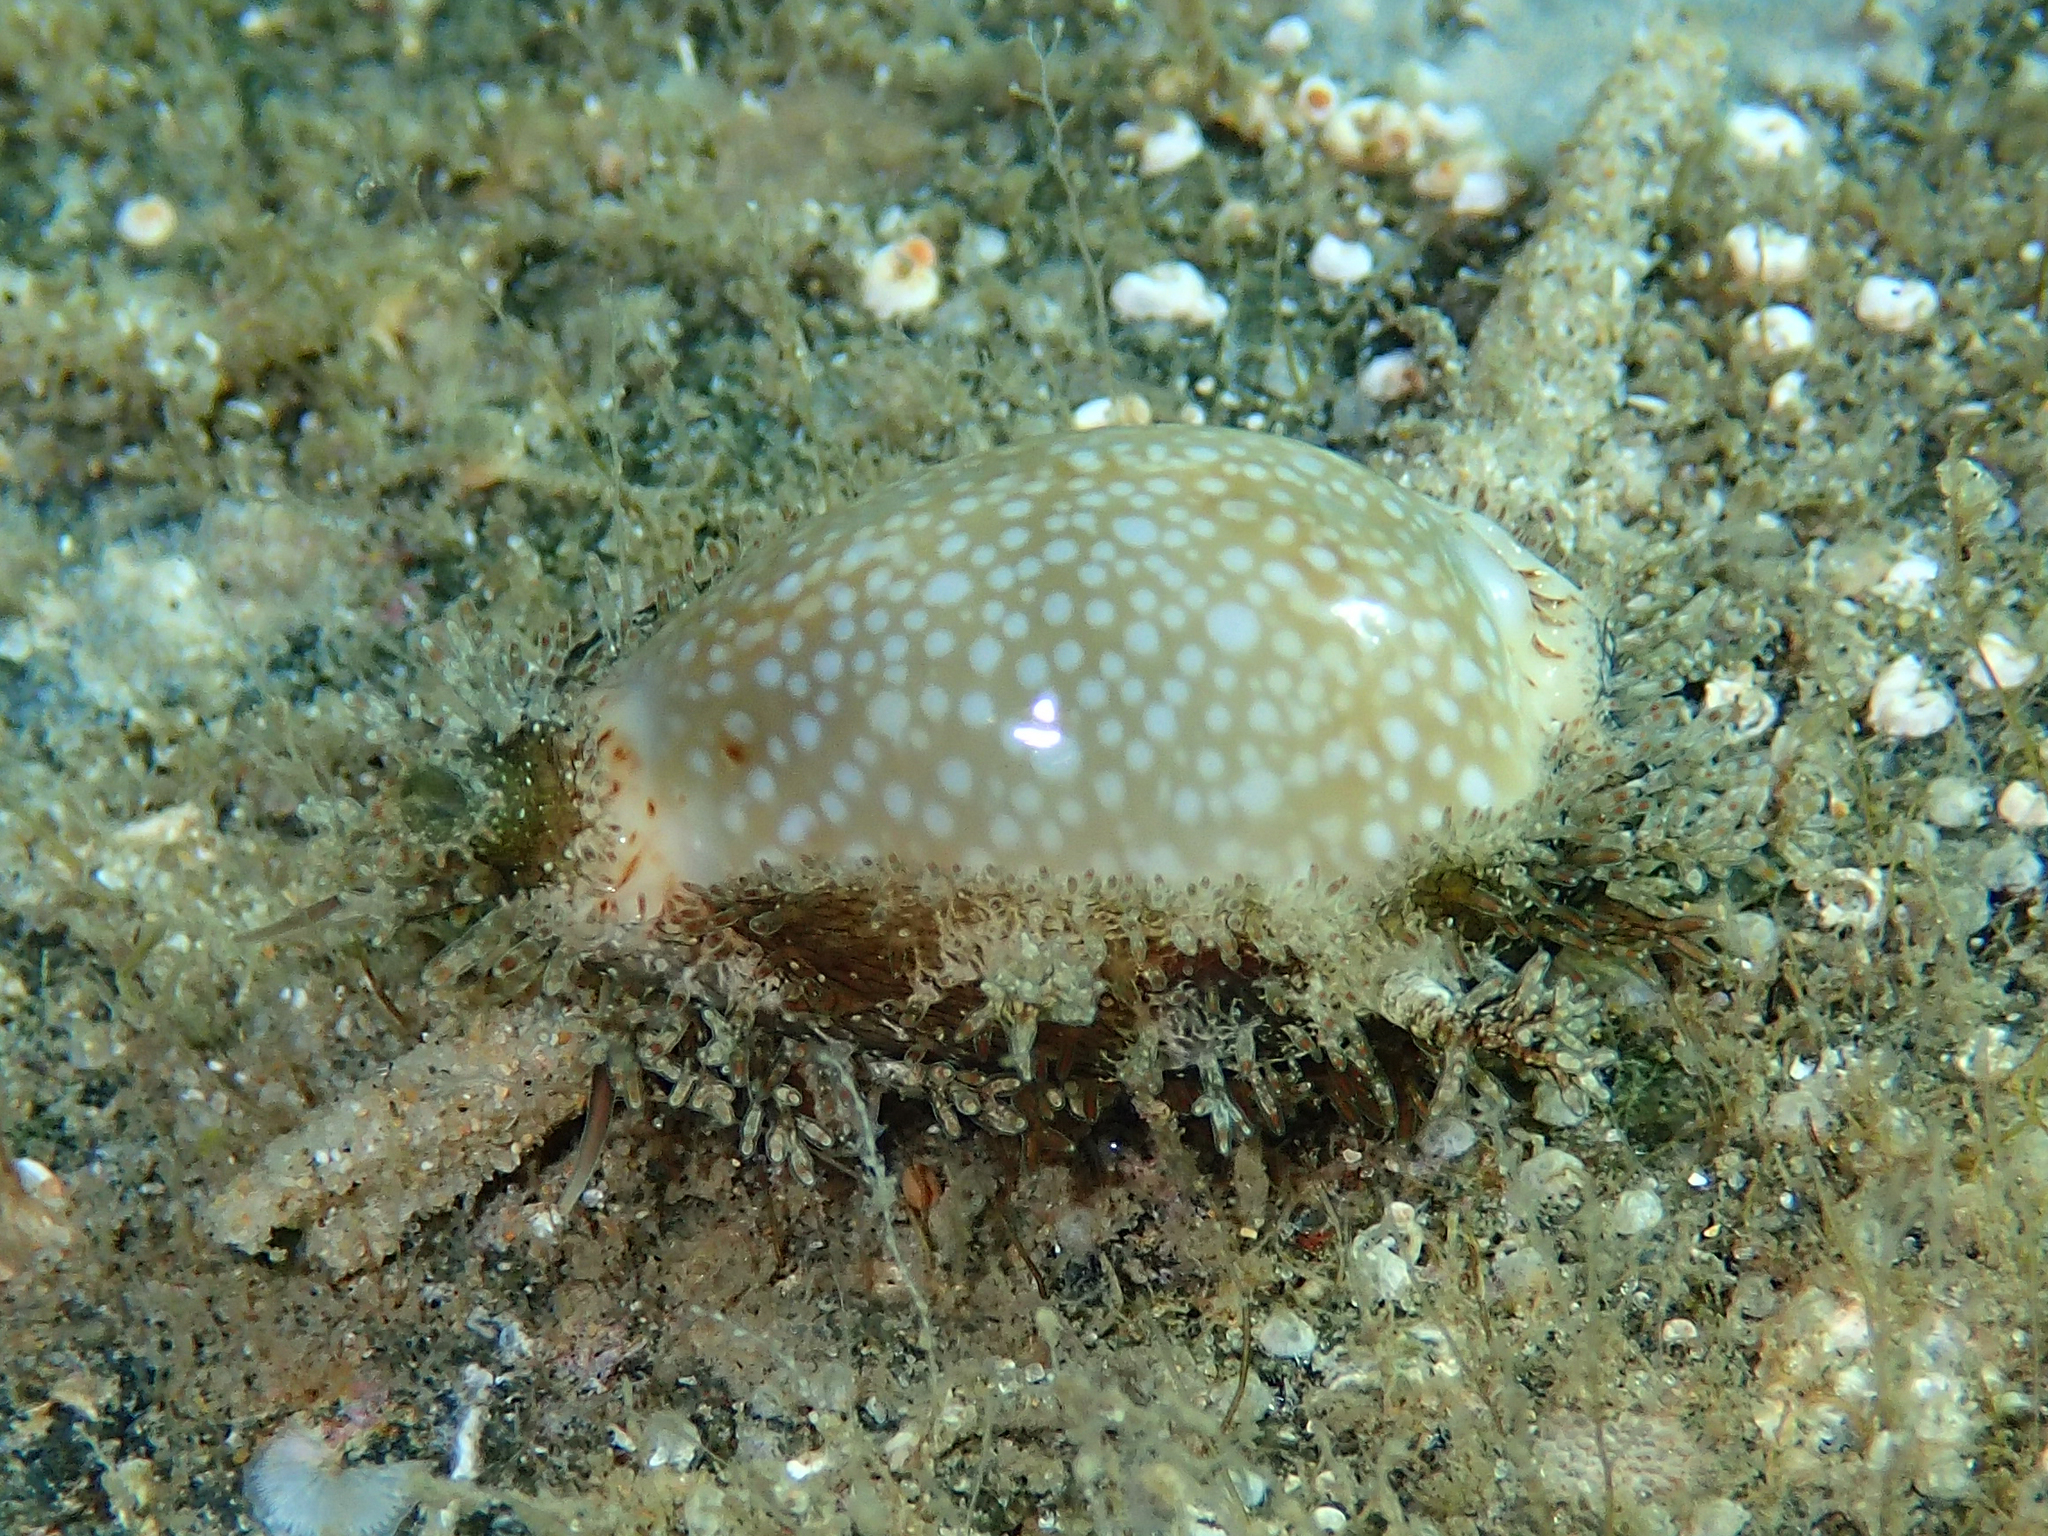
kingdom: Animalia
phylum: Mollusca
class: Gastropoda
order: Littorinimorpha
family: Cypraeidae
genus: Naria
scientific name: Naria erosa
